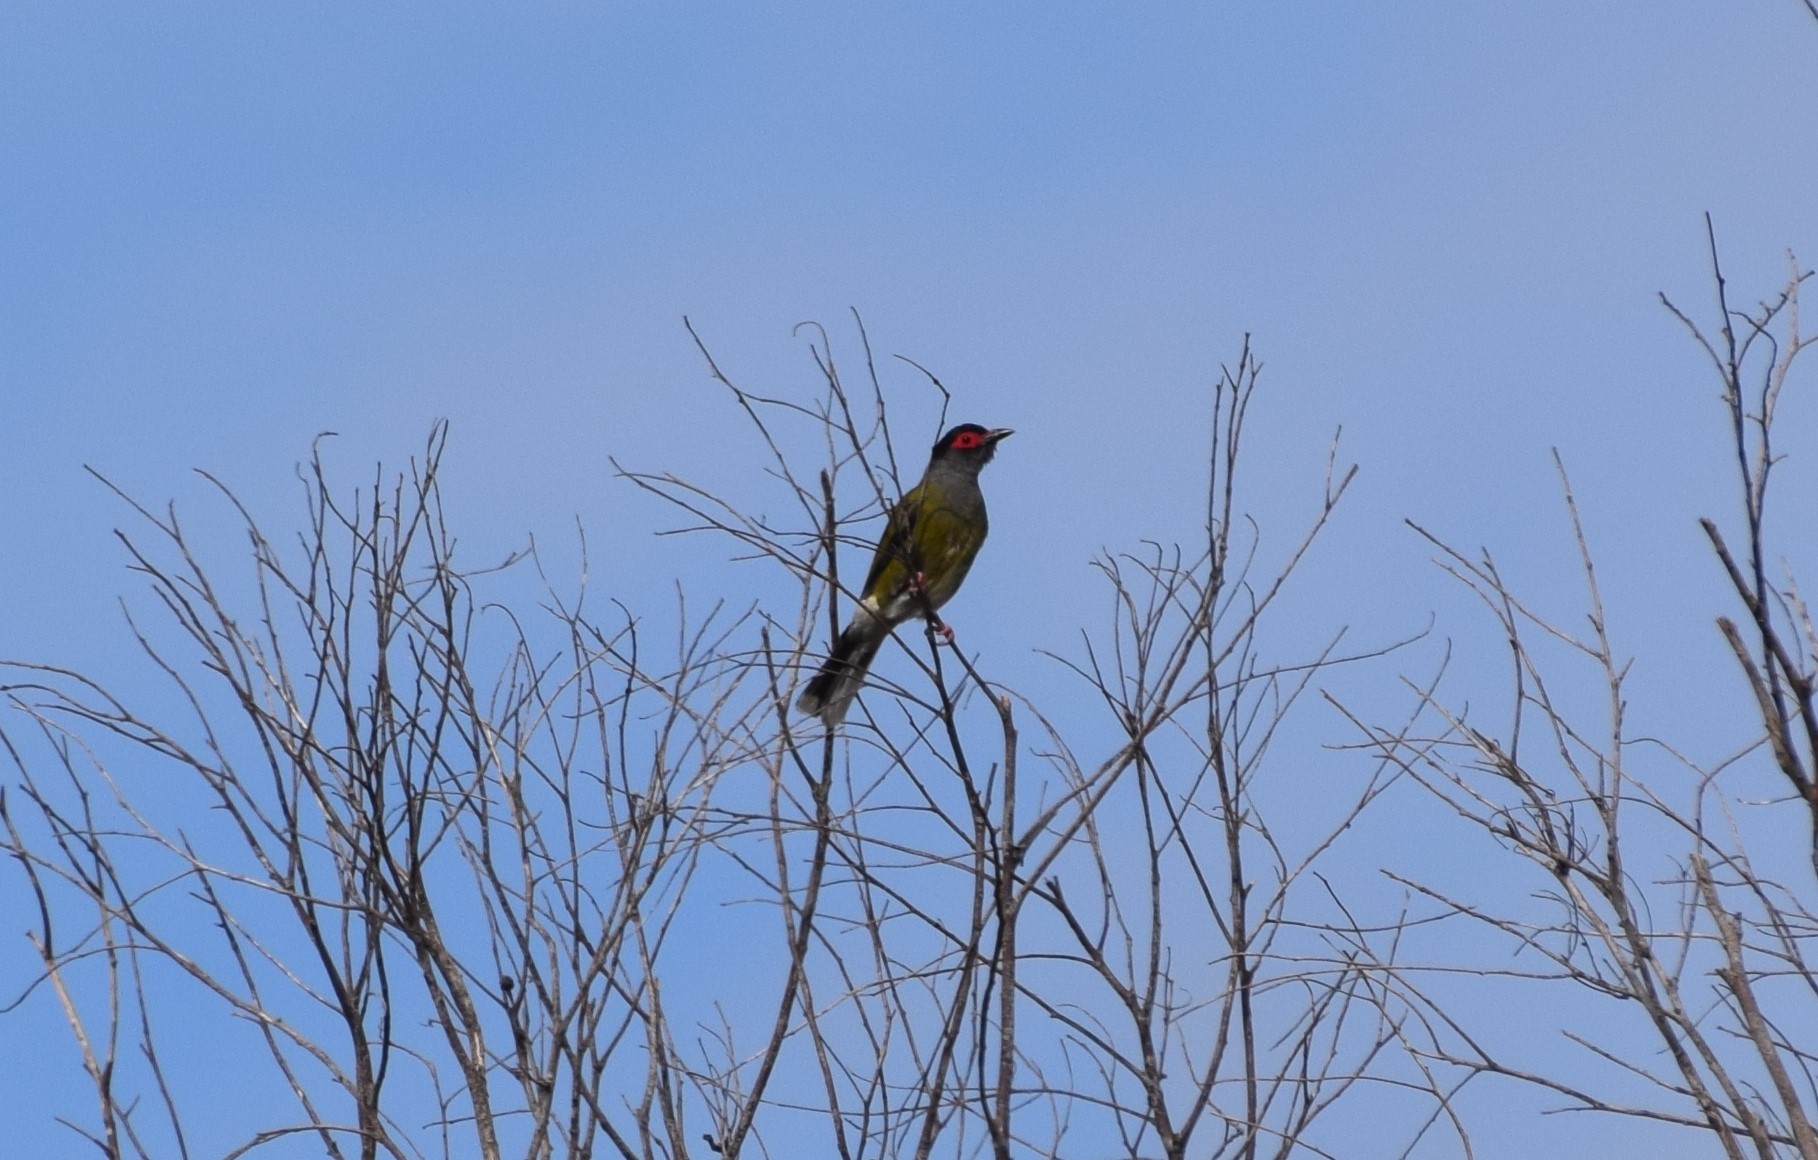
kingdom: Animalia
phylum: Chordata
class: Aves
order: Passeriformes
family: Oriolidae
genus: Sphecotheres
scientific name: Sphecotheres vieilloti
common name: Australasian figbird
